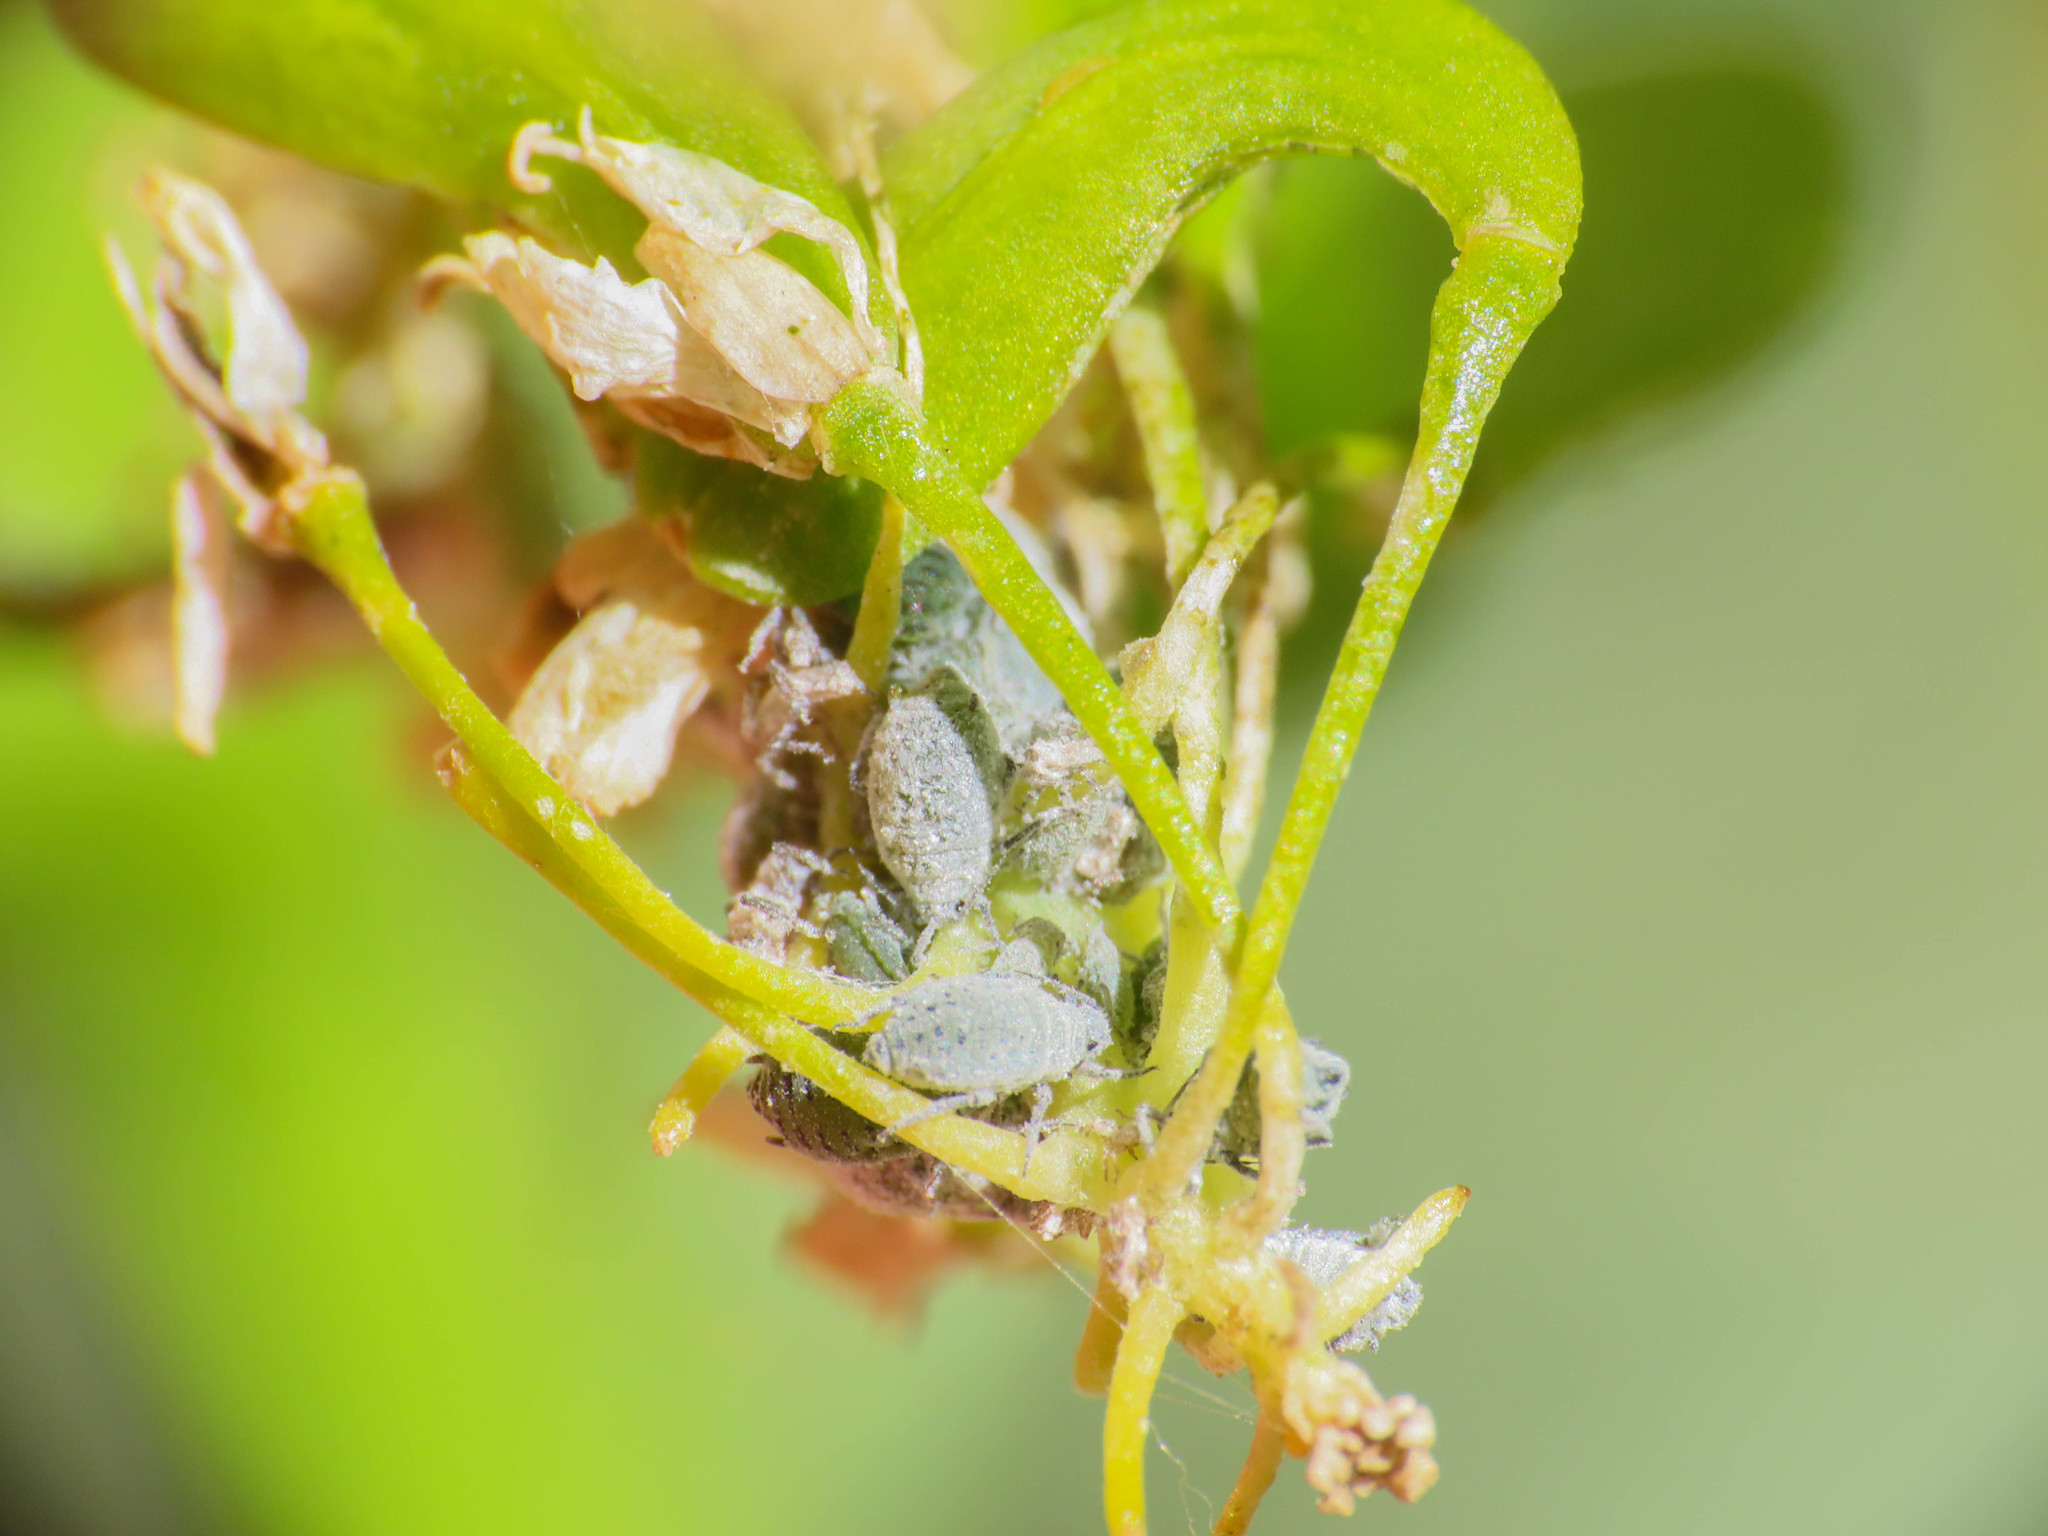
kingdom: Animalia
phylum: Arthropoda
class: Insecta
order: Hemiptera
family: Aphididae
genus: Brevicoryne
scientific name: Brevicoryne brassicae
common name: Cabbage aphid
